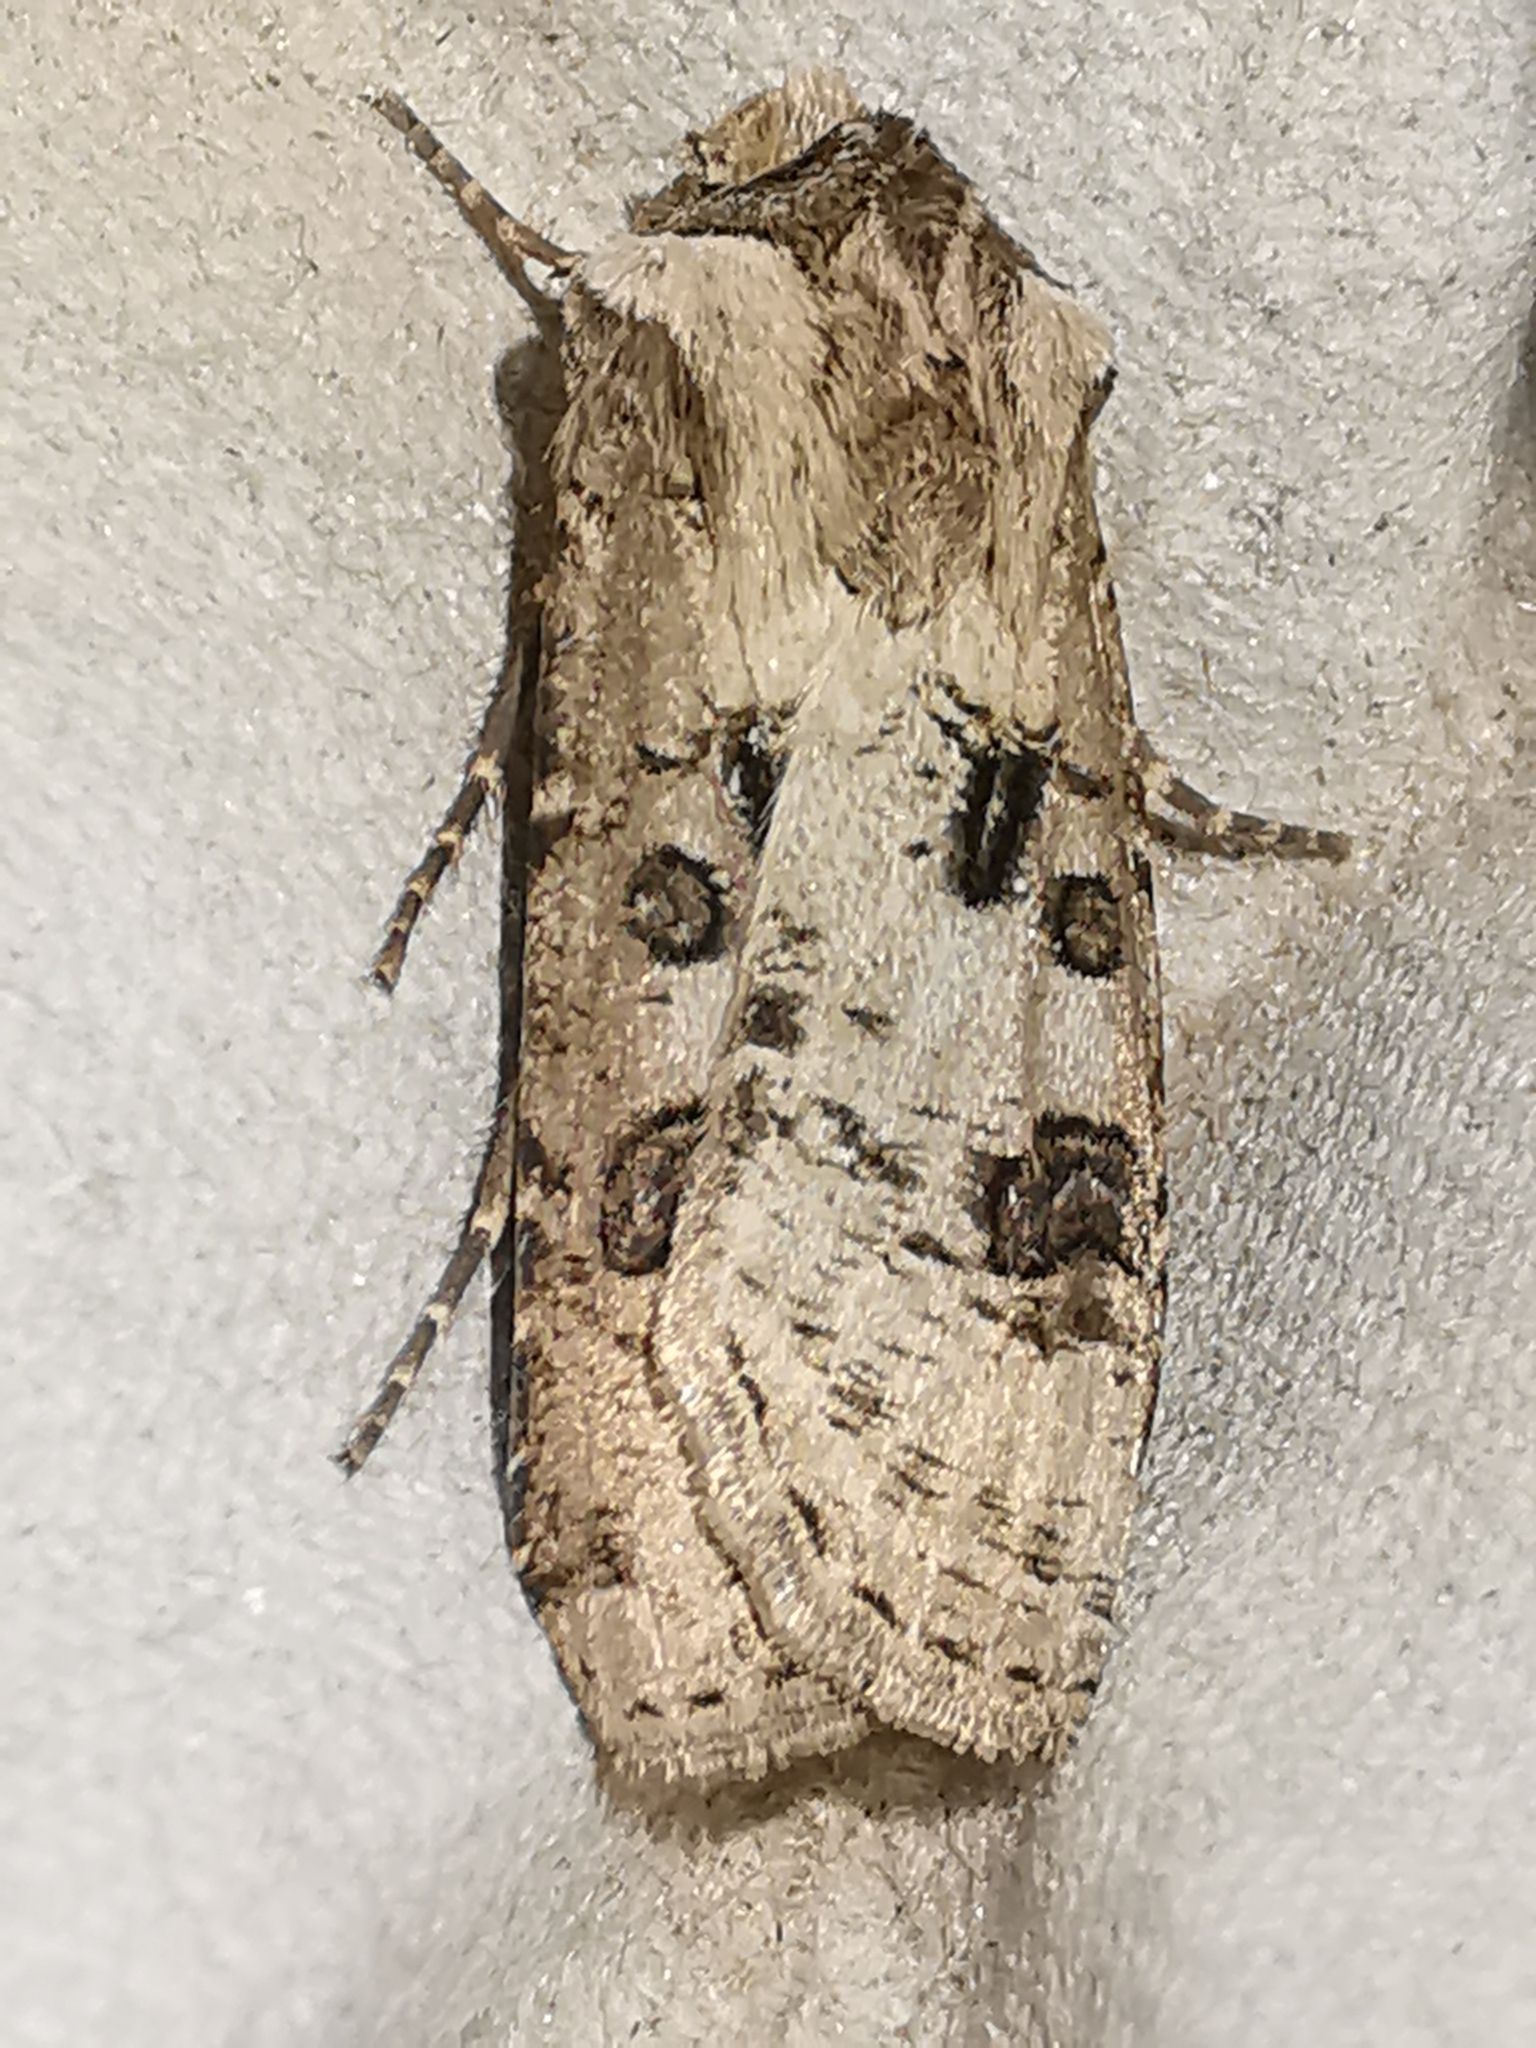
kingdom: Animalia
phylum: Arthropoda
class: Insecta
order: Lepidoptera
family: Noctuidae
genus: Agrotis
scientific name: Agrotis clavis
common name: Heart and club
